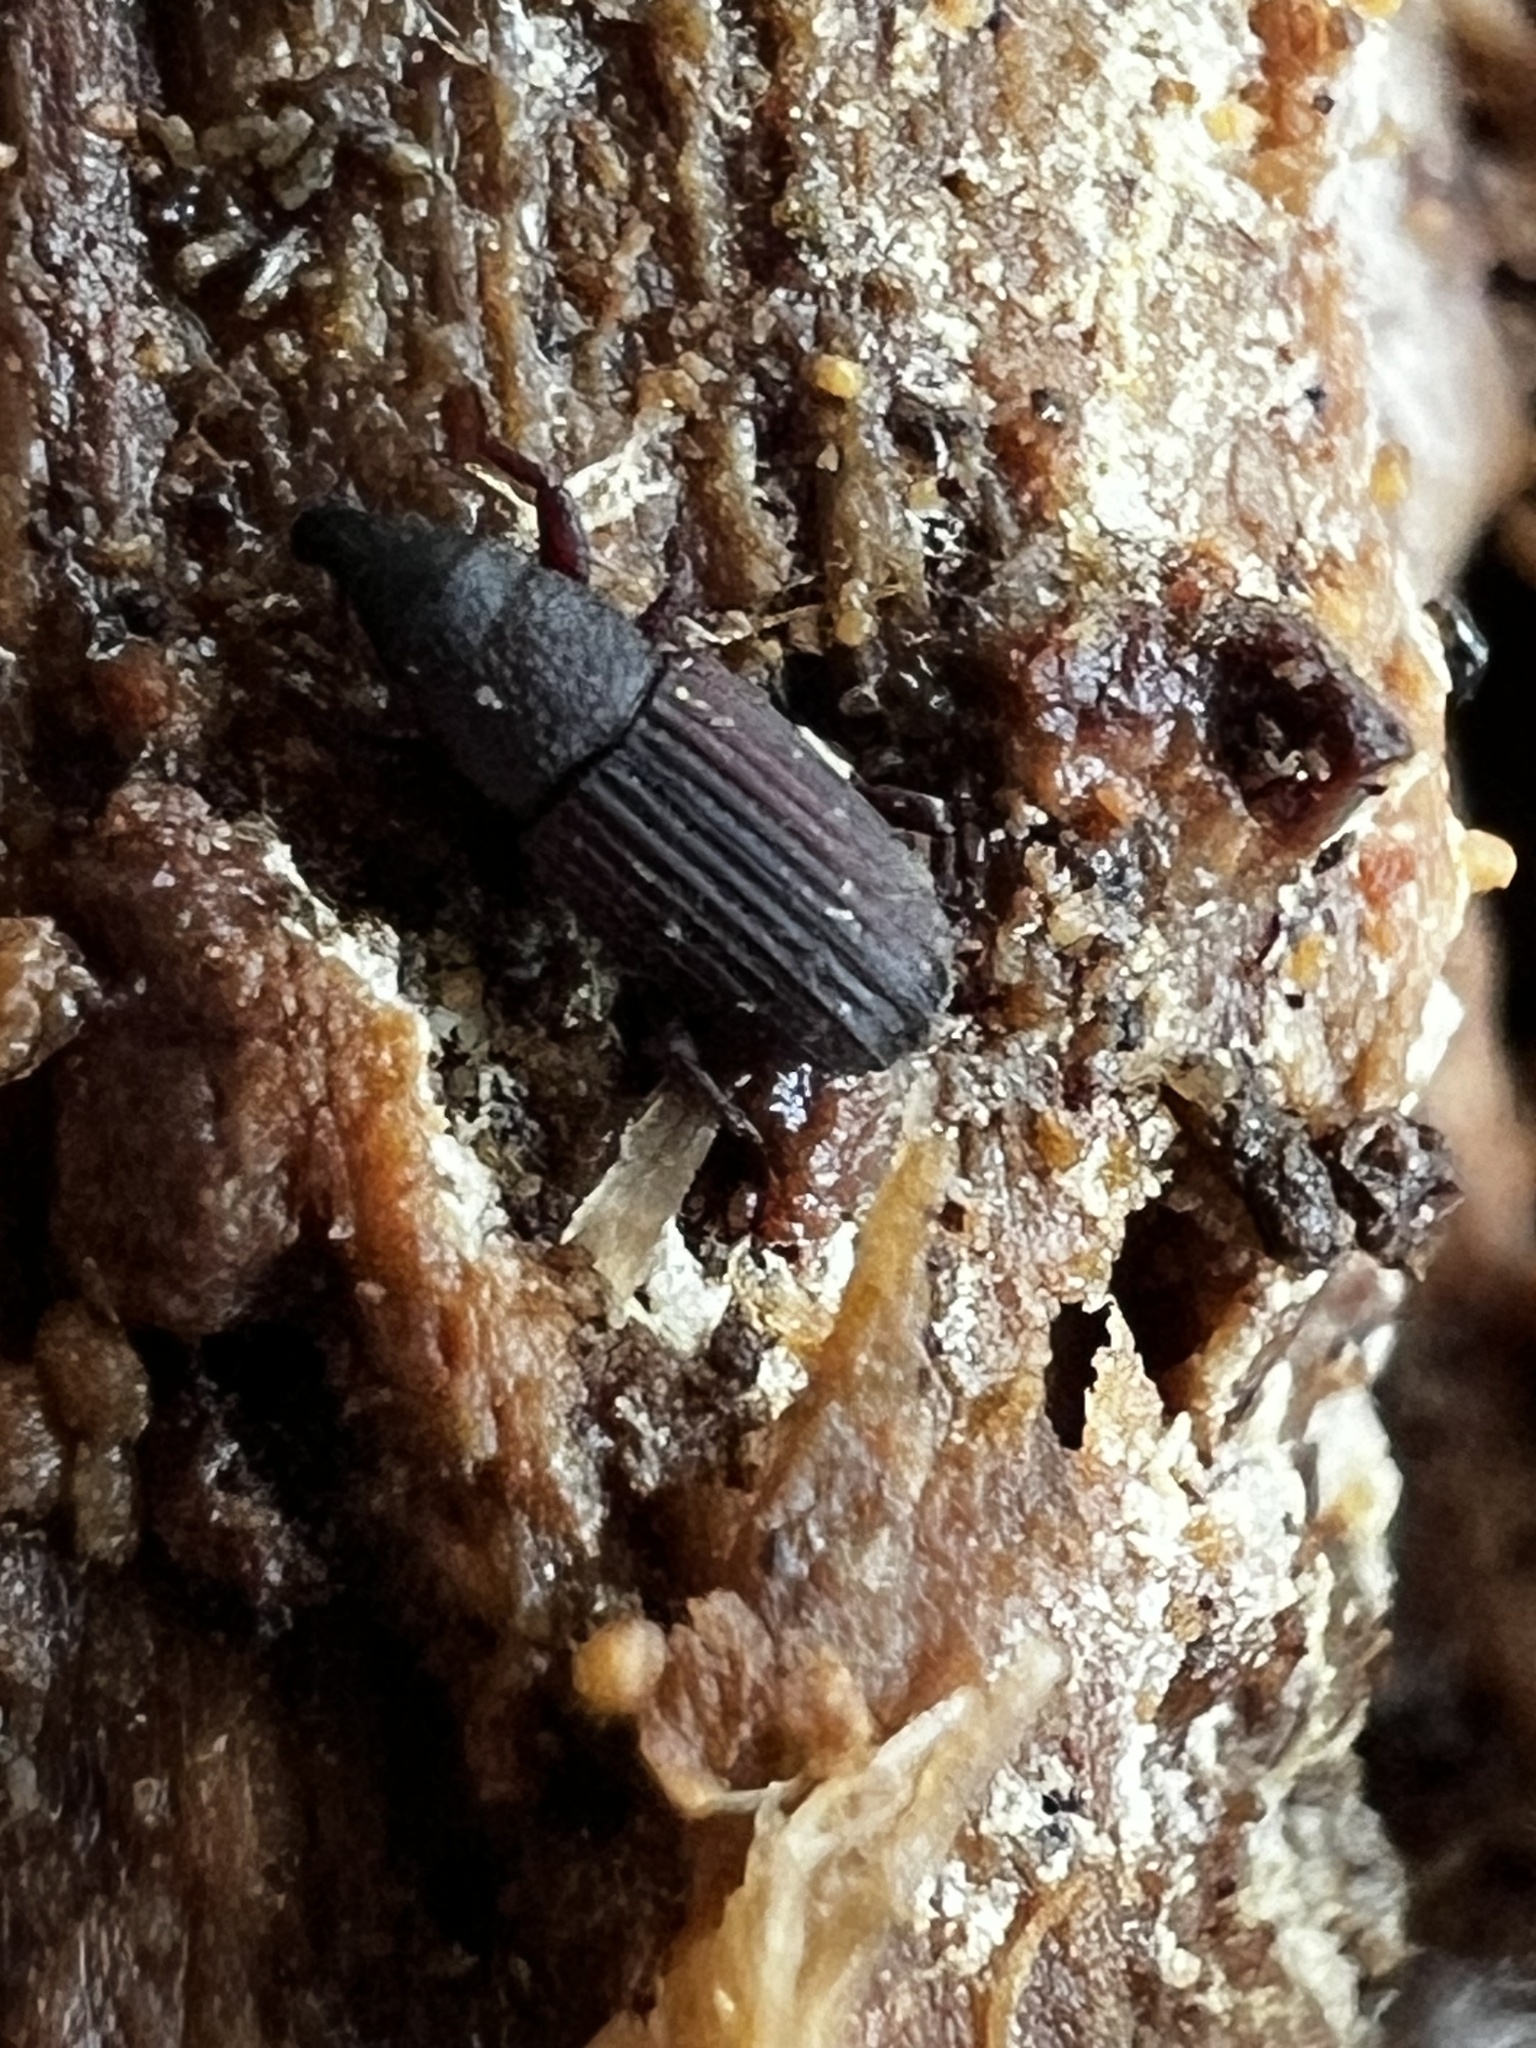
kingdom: Animalia
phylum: Arthropoda
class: Insecta
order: Coleoptera
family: Dryophthoridae
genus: Dryophthorus
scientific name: Dryophthorus americanus
